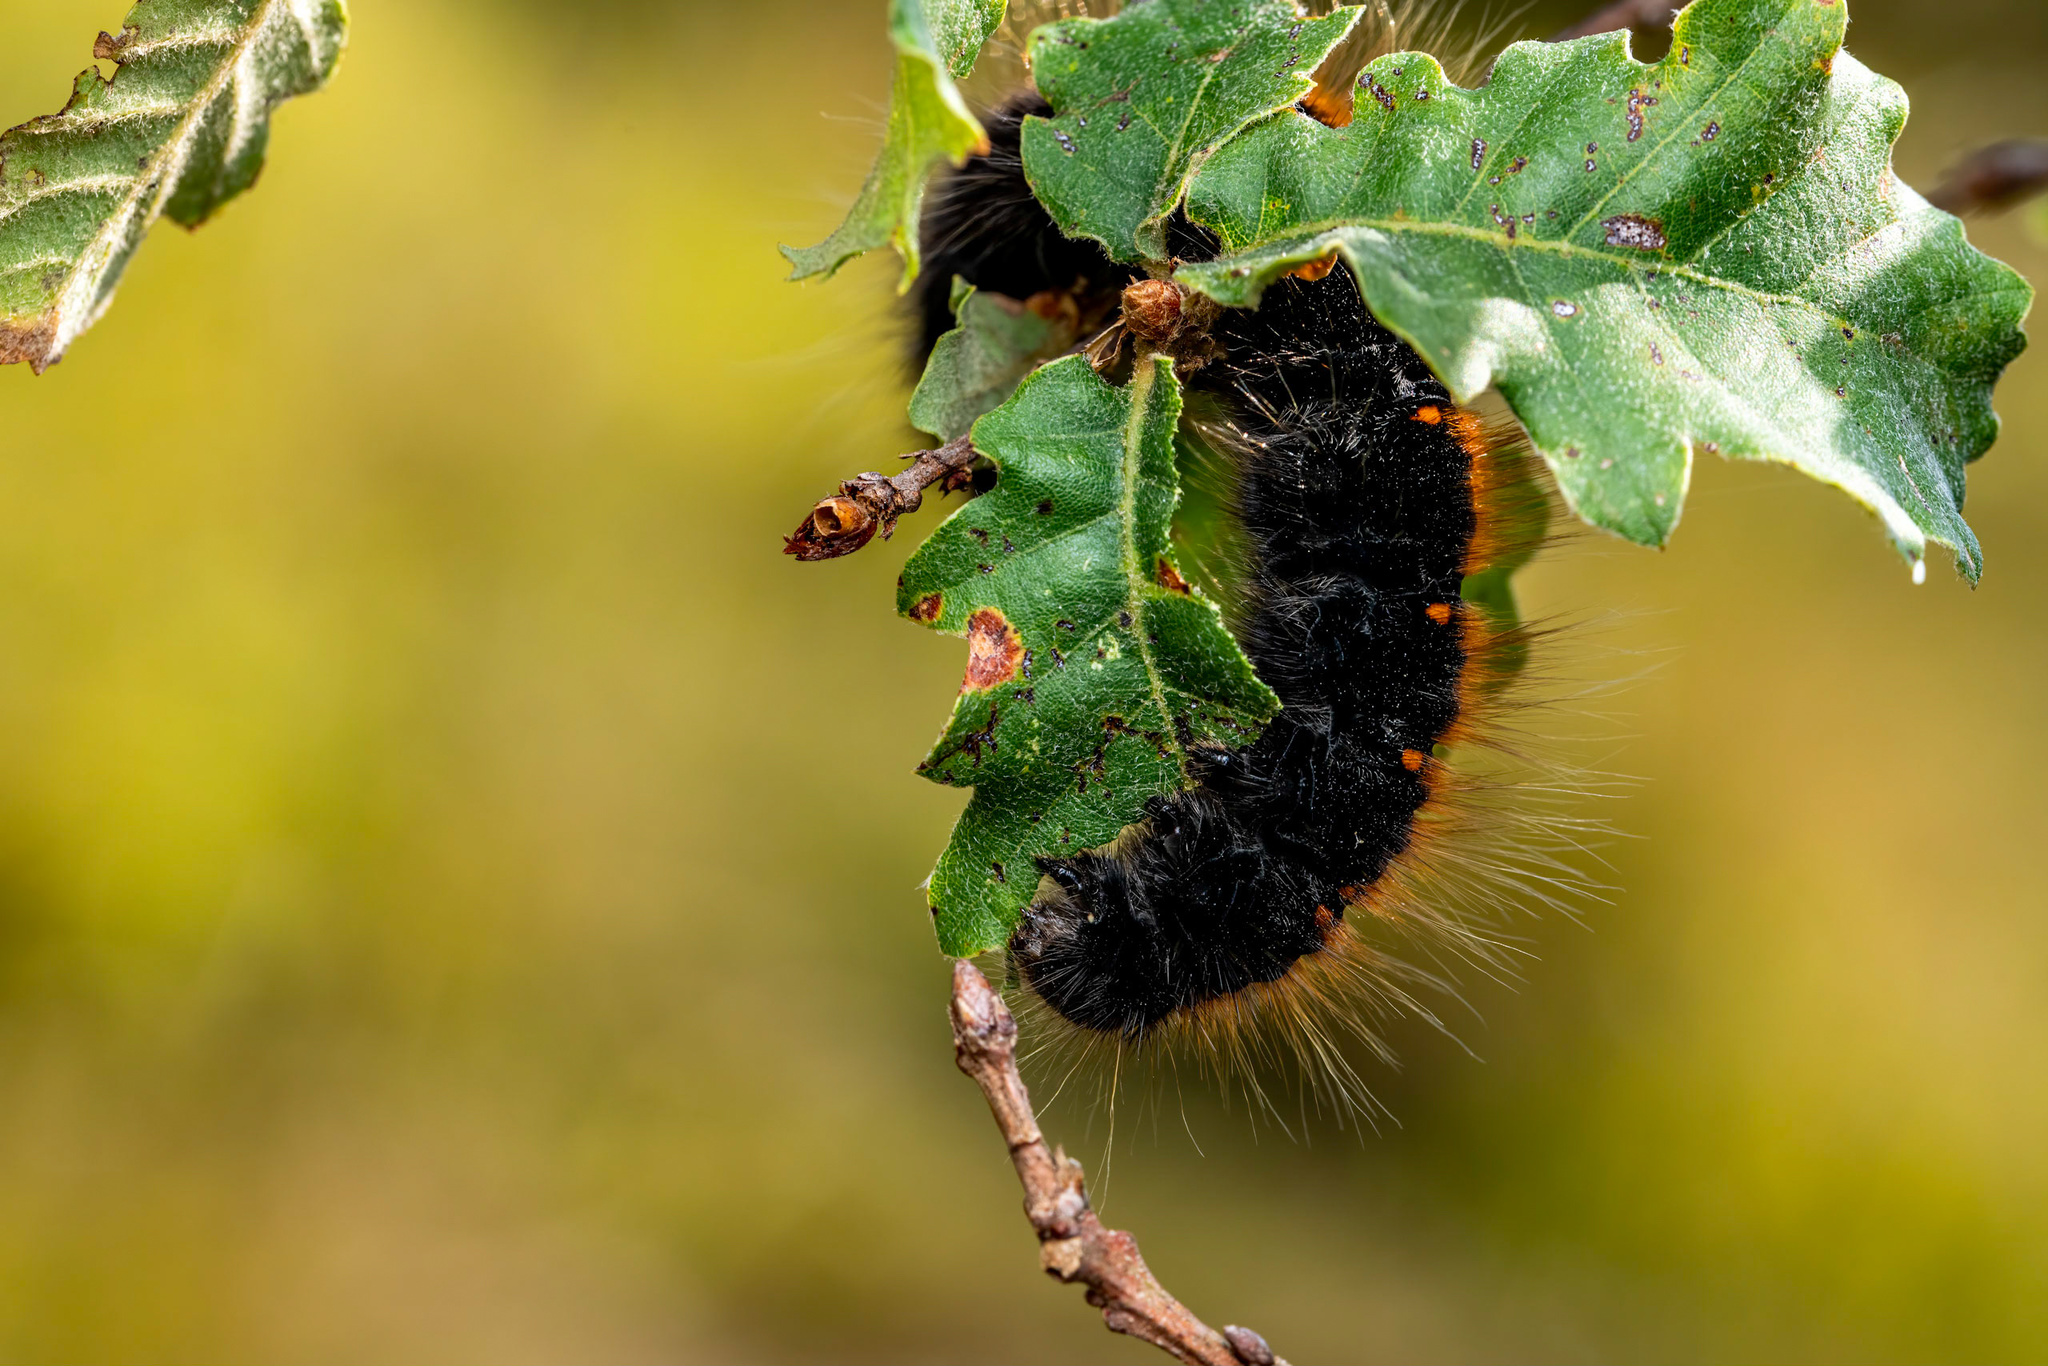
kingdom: Animalia
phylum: Arthropoda
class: Insecta
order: Lepidoptera
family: Lasiocampidae
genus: Macrothylacia
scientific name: Macrothylacia rubi
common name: Fox moth
